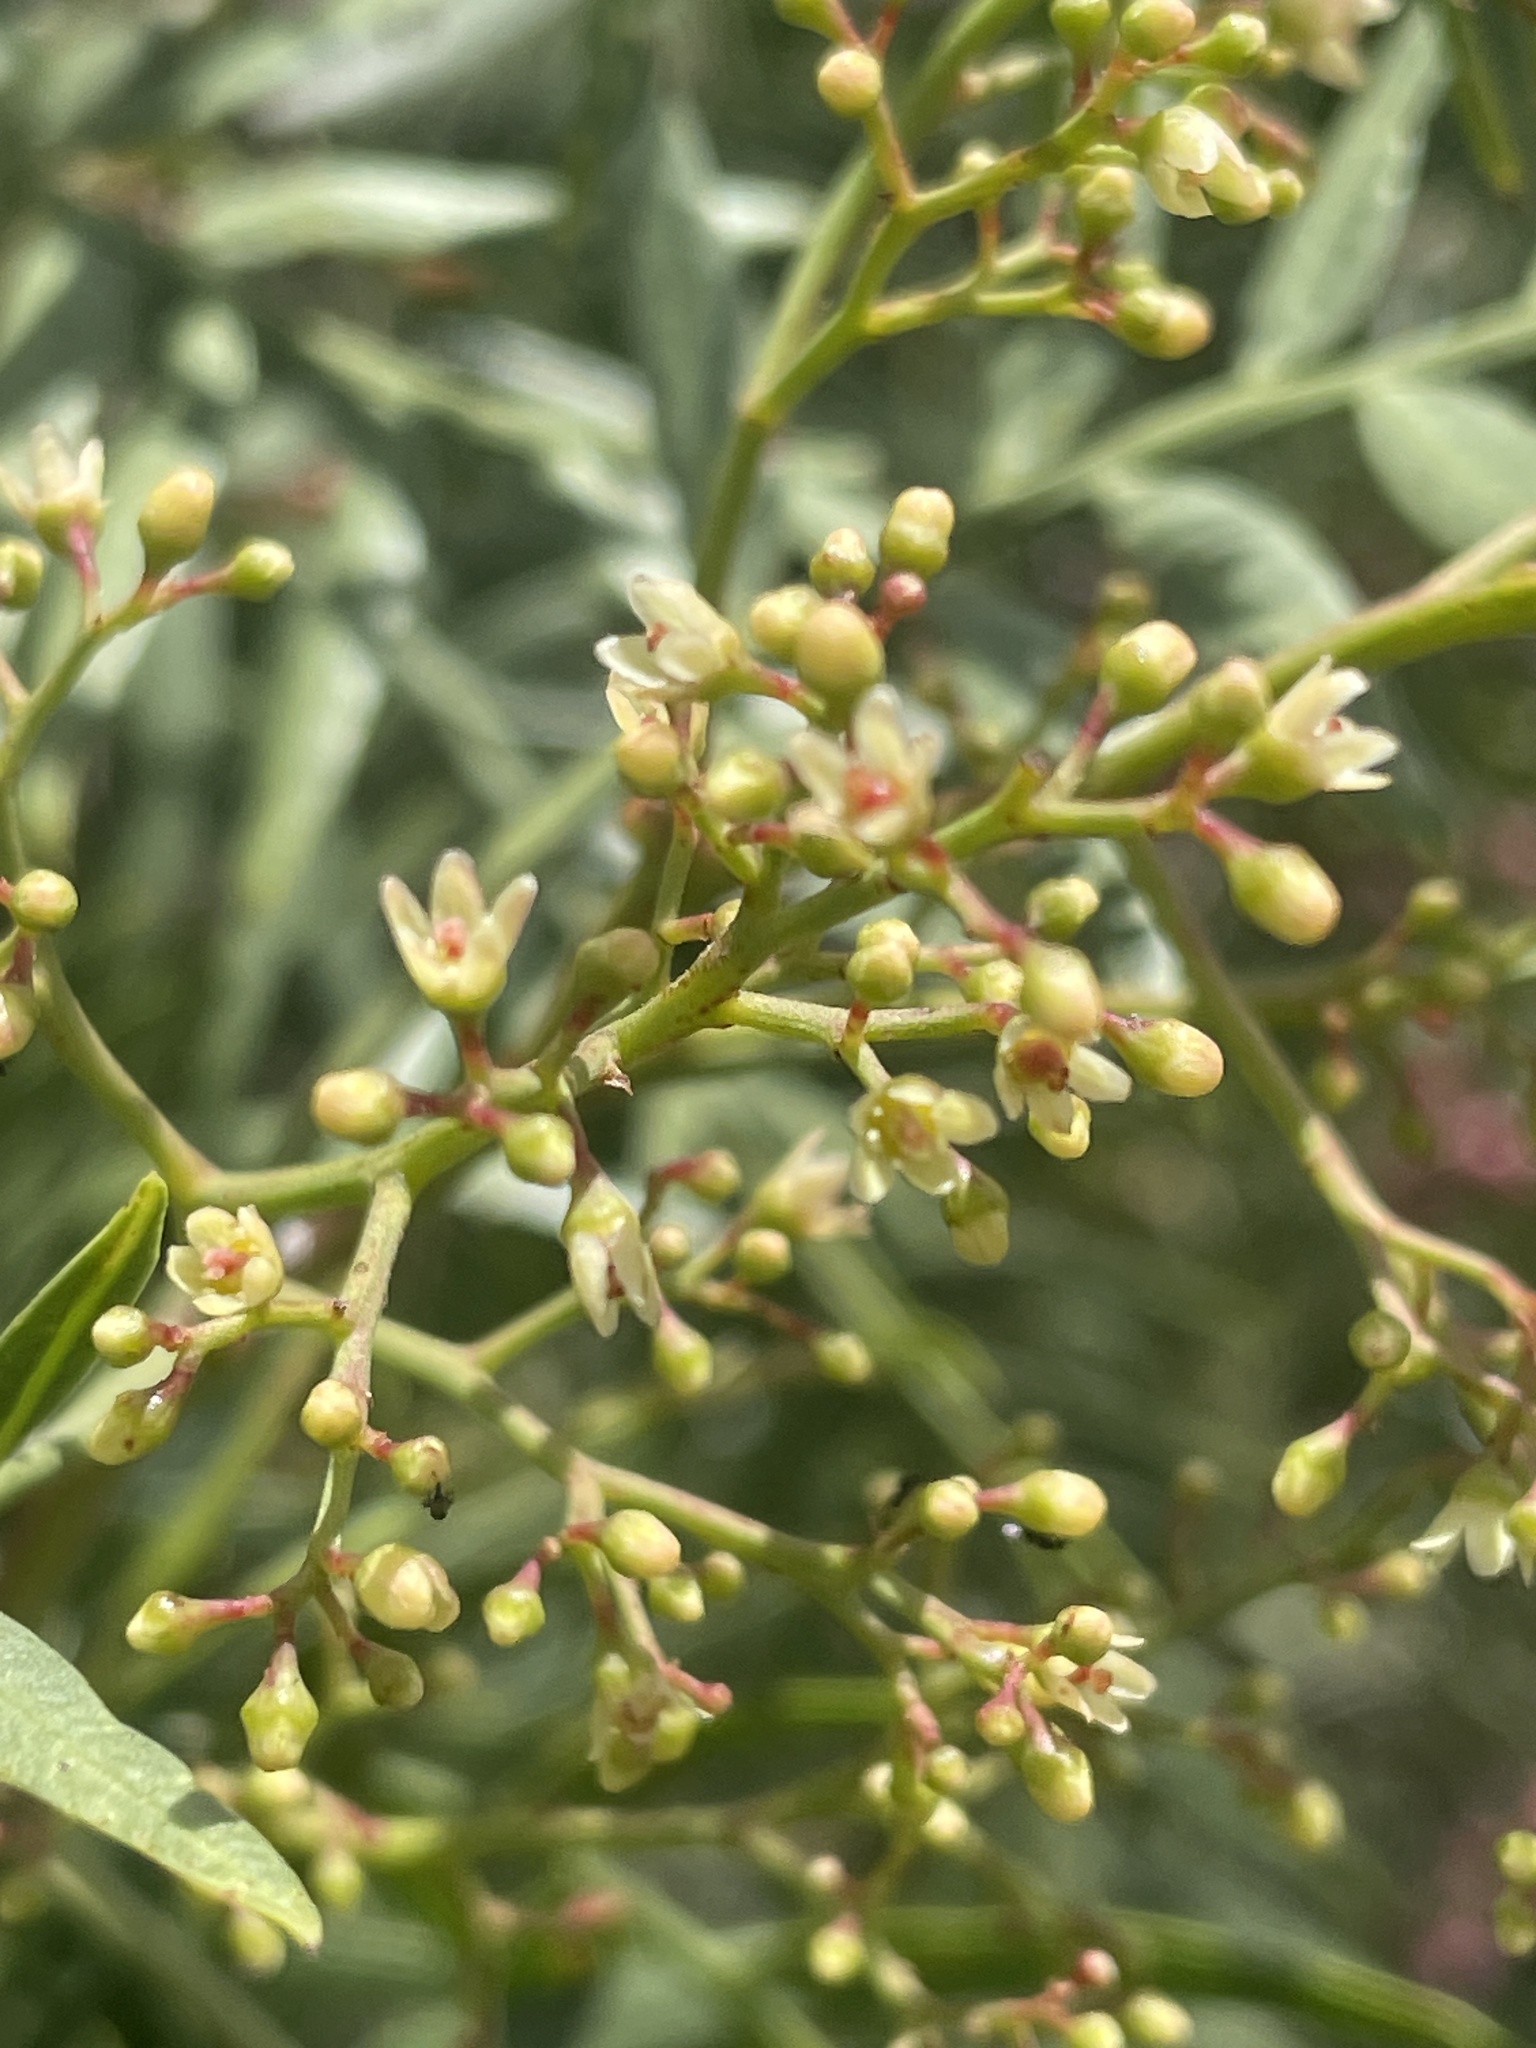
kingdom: Plantae
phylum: Tracheophyta
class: Magnoliopsida
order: Sapindales
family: Anacardiaceae
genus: Schinus
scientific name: Schinus molle
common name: Peruvian peppertree
